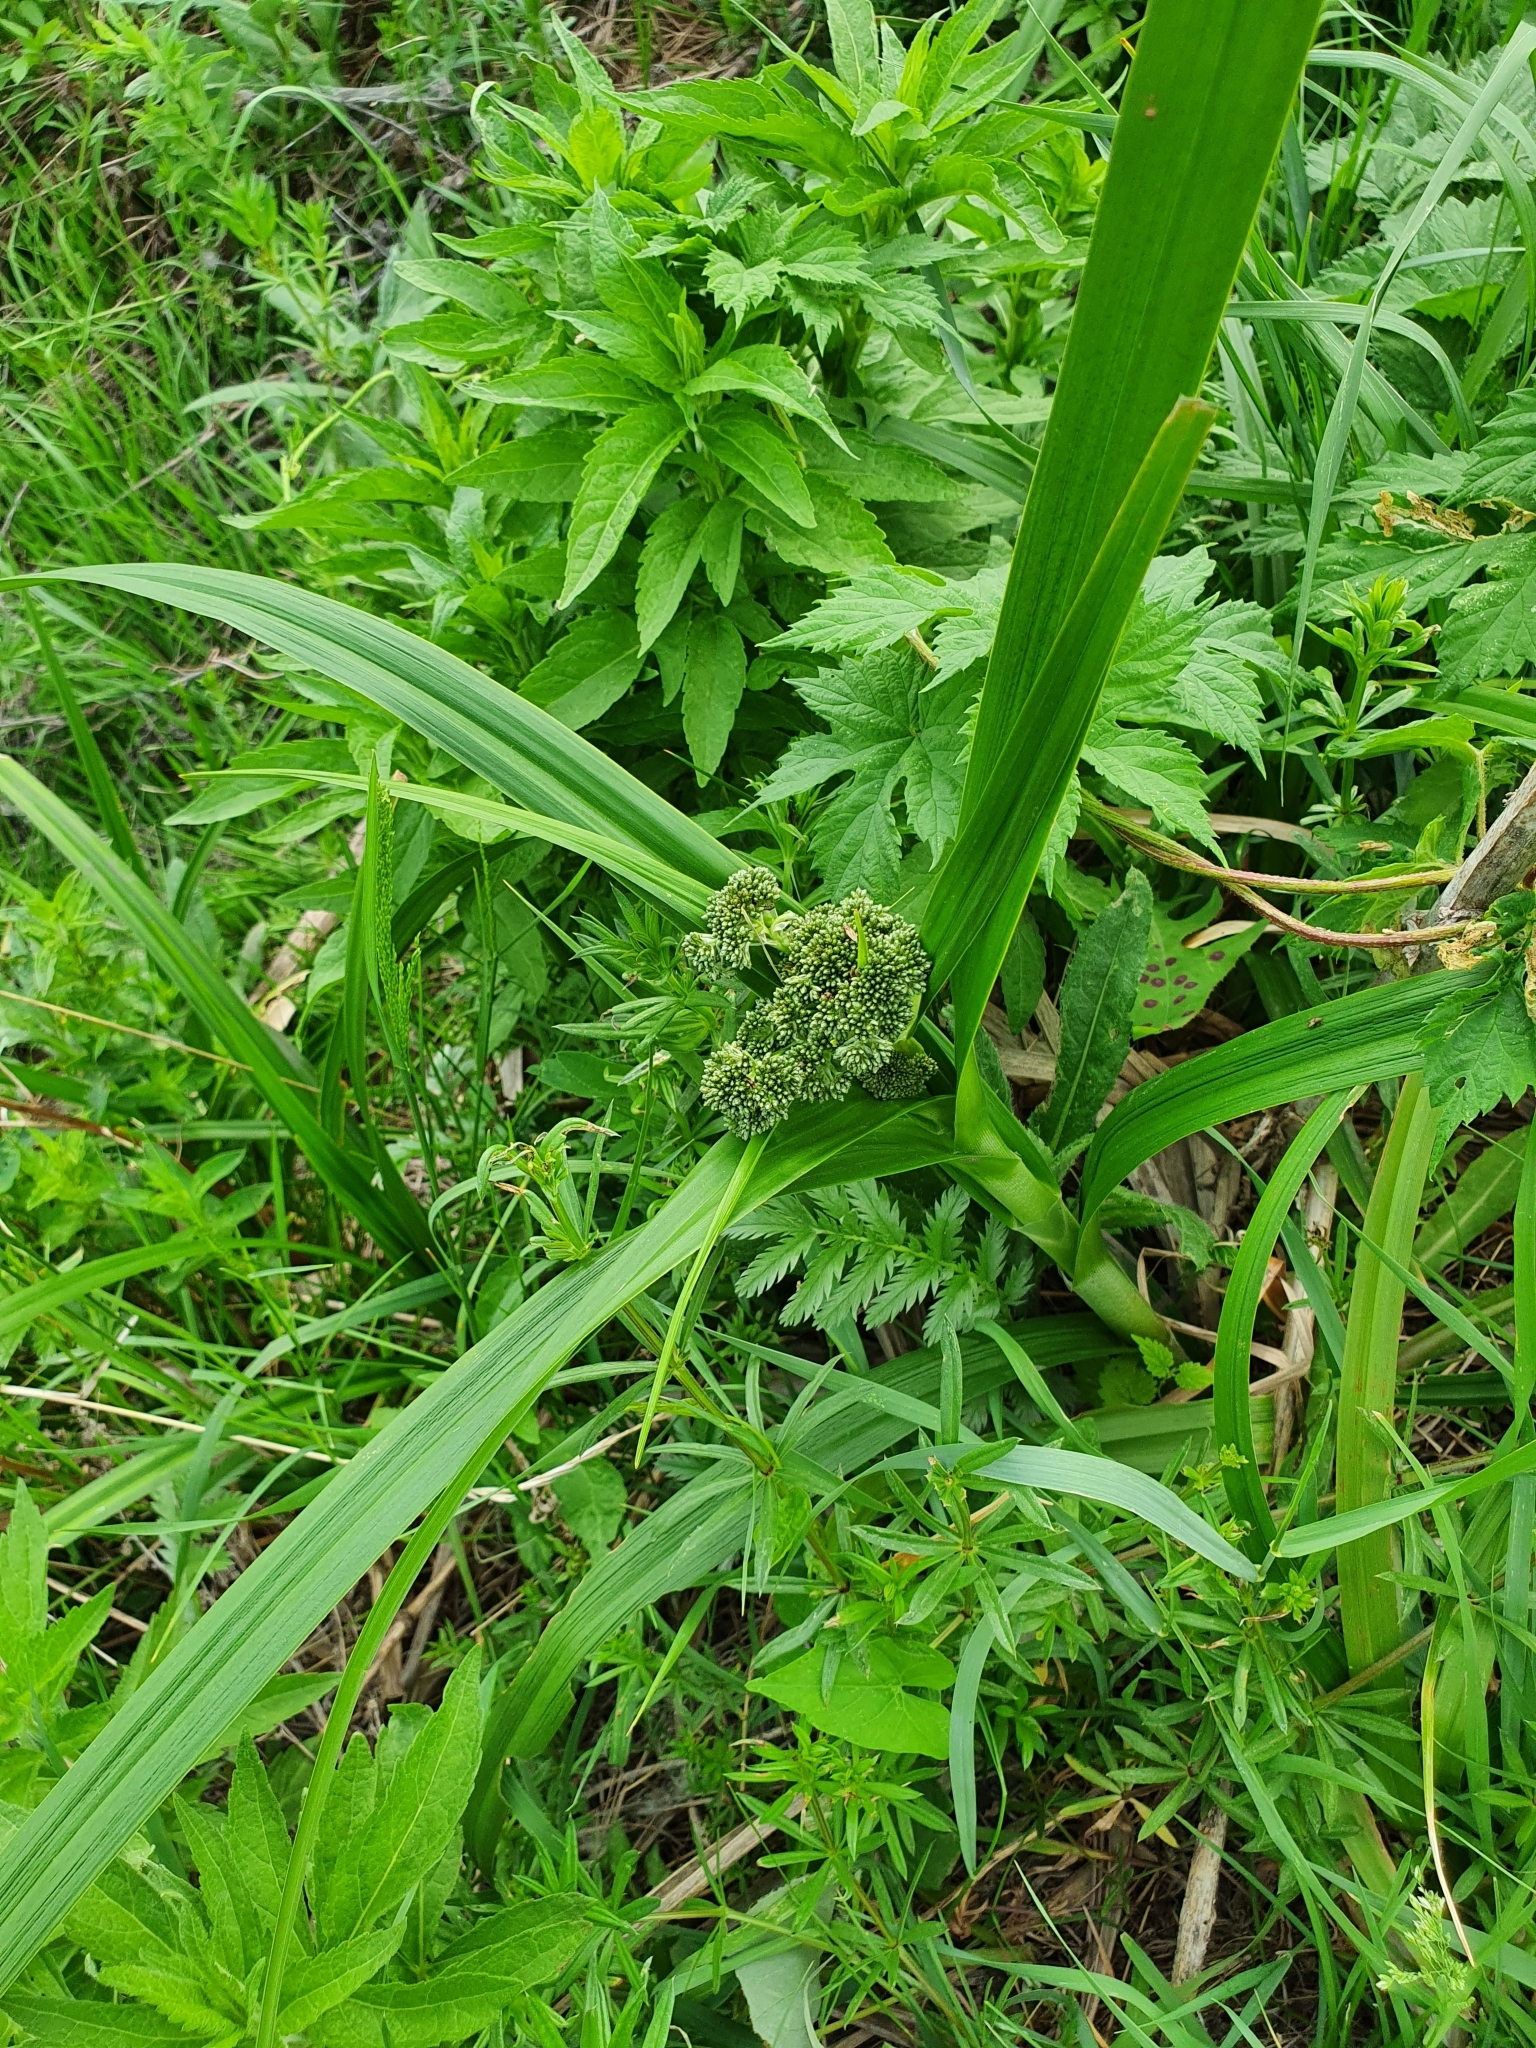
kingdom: Plantae
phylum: Tracheophyta
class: Liliopsida
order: Poales
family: Cyperaceae
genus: Scirpus
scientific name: Scirpus sylvaticus
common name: Wood club-rush
